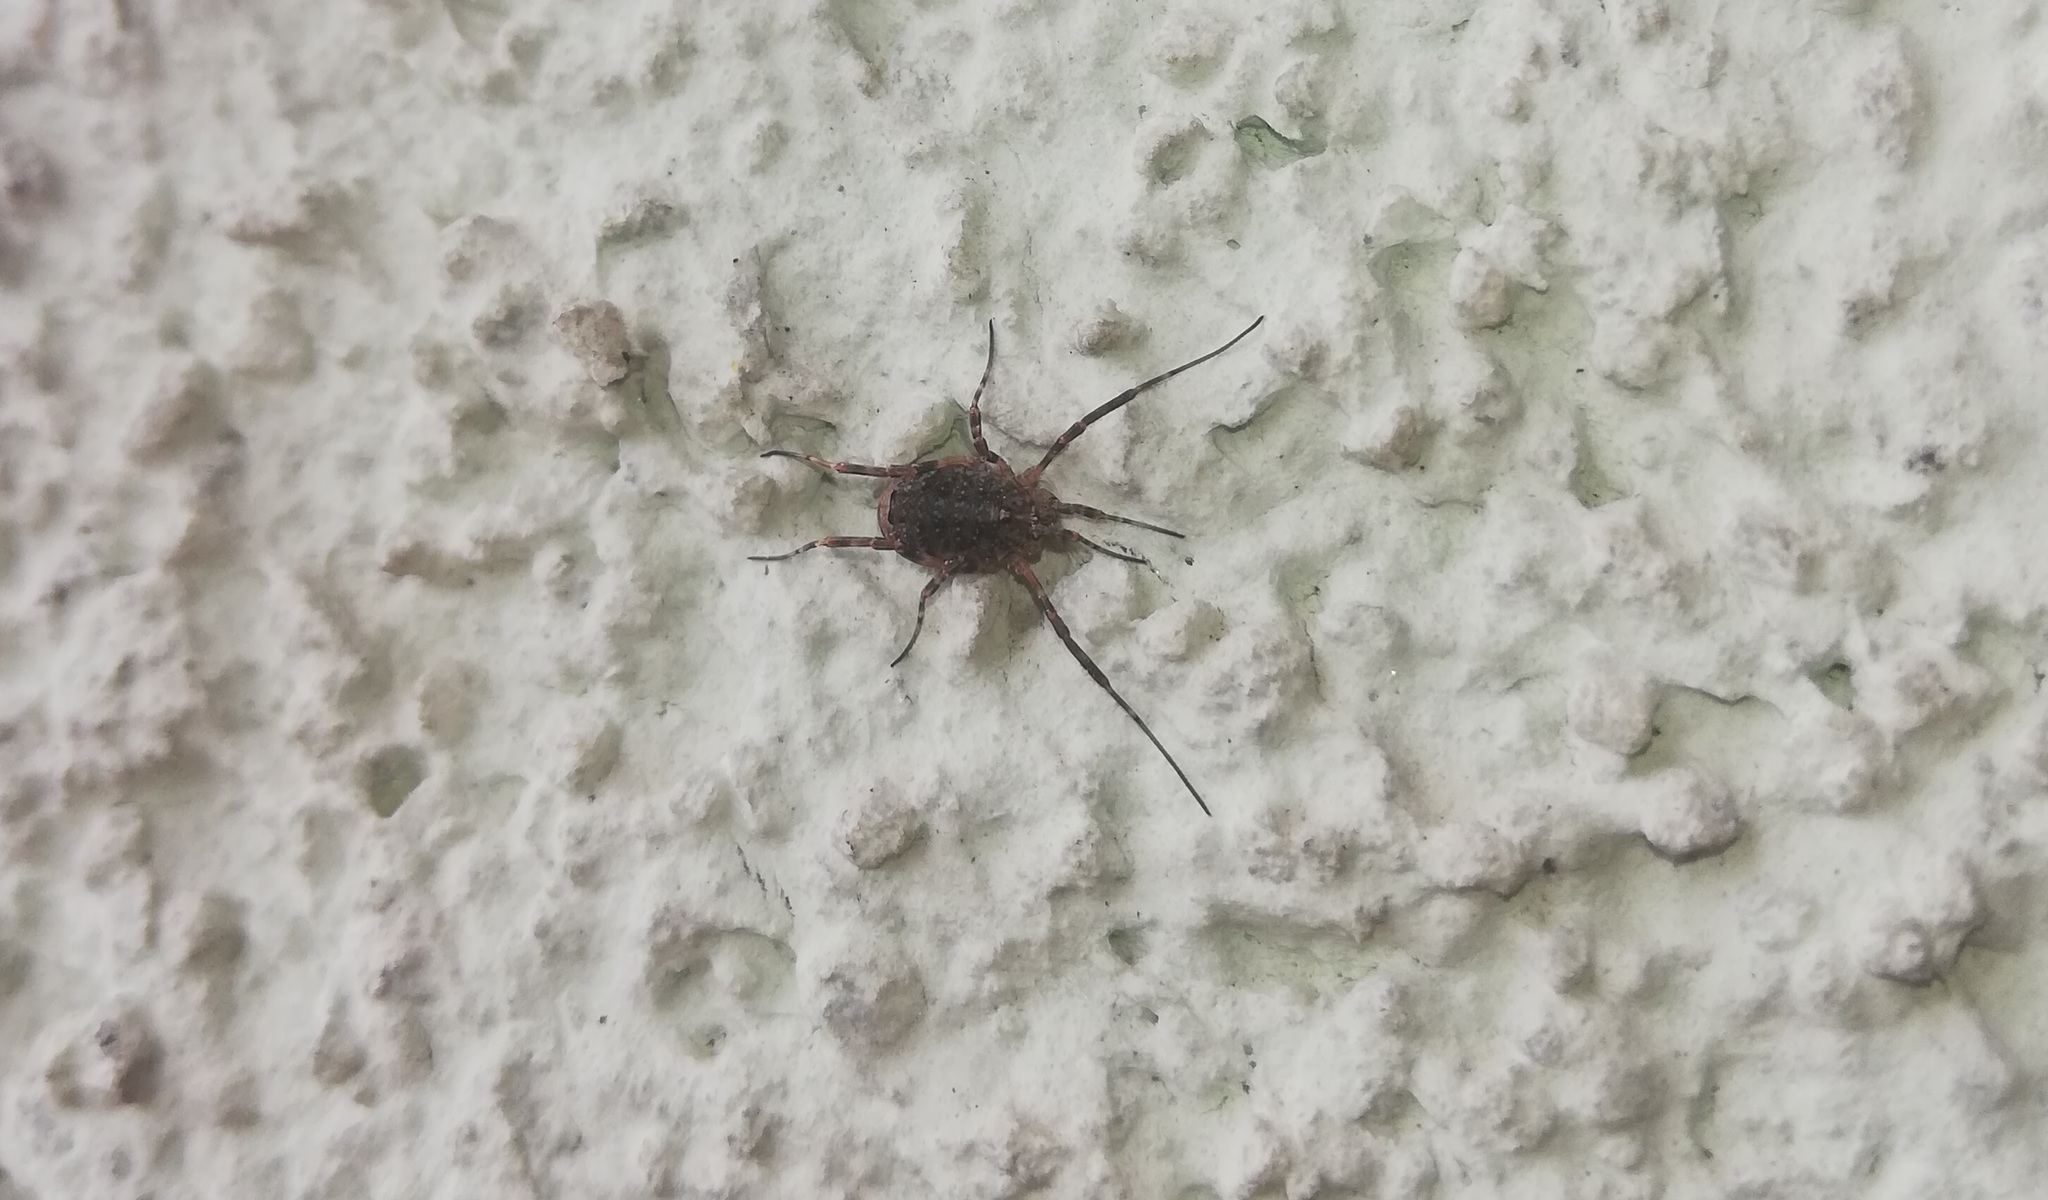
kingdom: Animalia
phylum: Arthropoda
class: Arachnida
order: Opiliones
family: Phalangiidae
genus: Odiellus
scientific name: Odiellus spinosus
